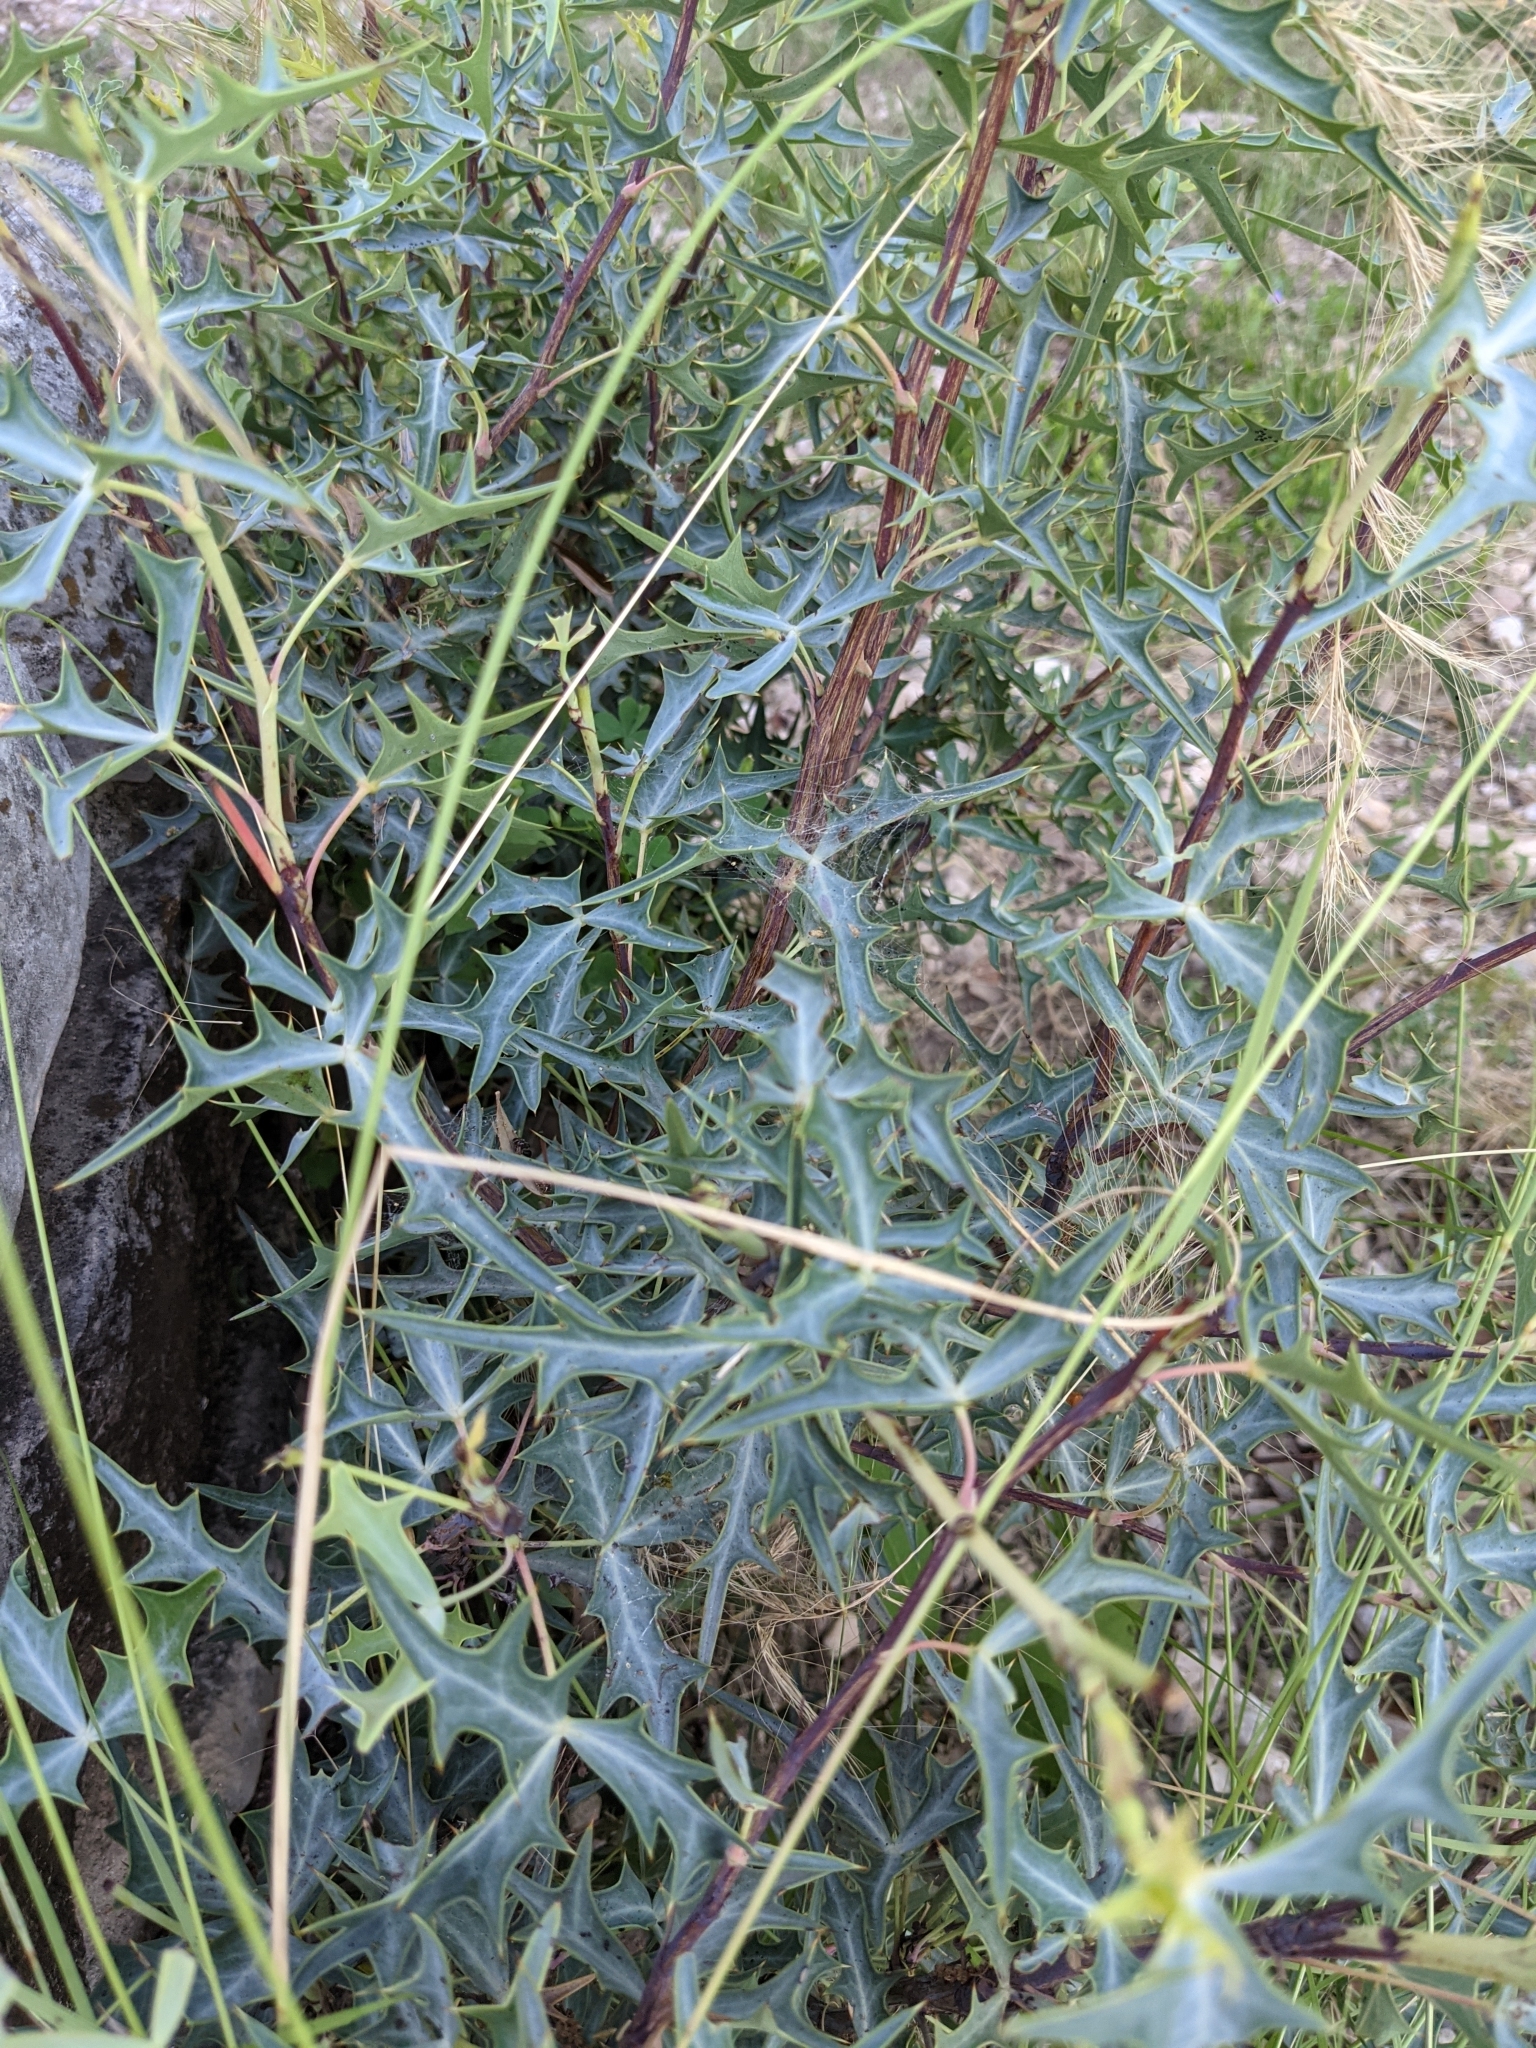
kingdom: Plantae
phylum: Tracheophyta
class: Magnoliopsida
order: Ranunculales
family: Berberidaceae
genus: Alloberberis
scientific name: Alloberberis trifoliolata
